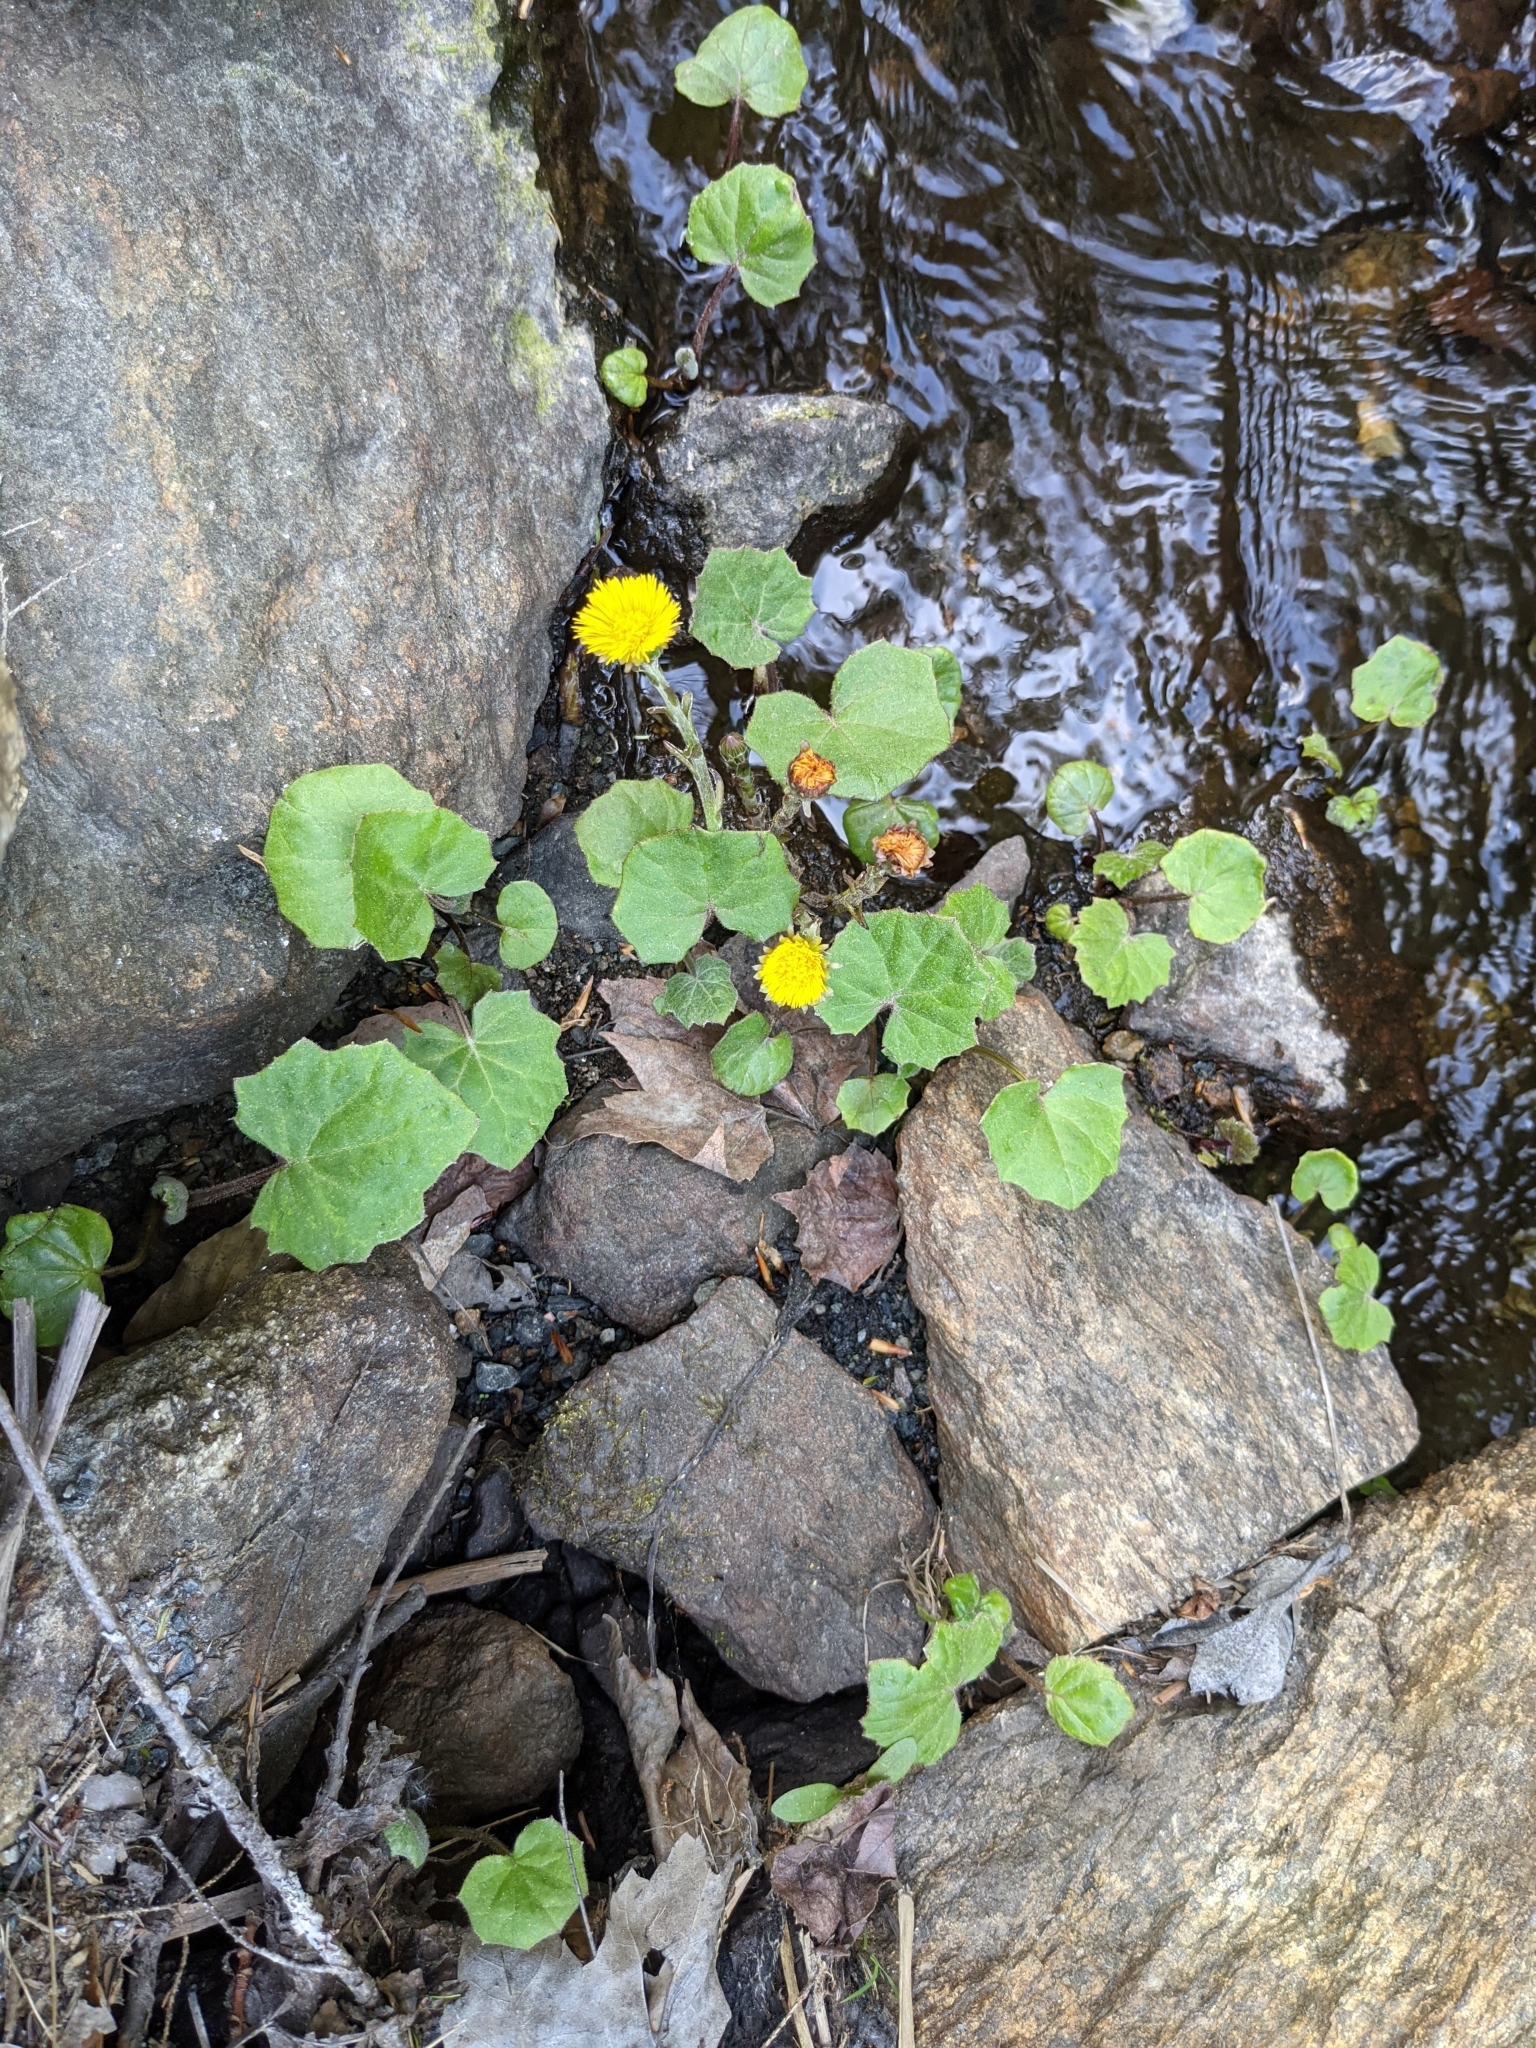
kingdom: Plantae
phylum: Tracheophyta
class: Magnoliopsida
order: Asterales
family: Asteraceae
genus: Tussilago
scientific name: Tussilago farfara
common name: Coltsfoot
